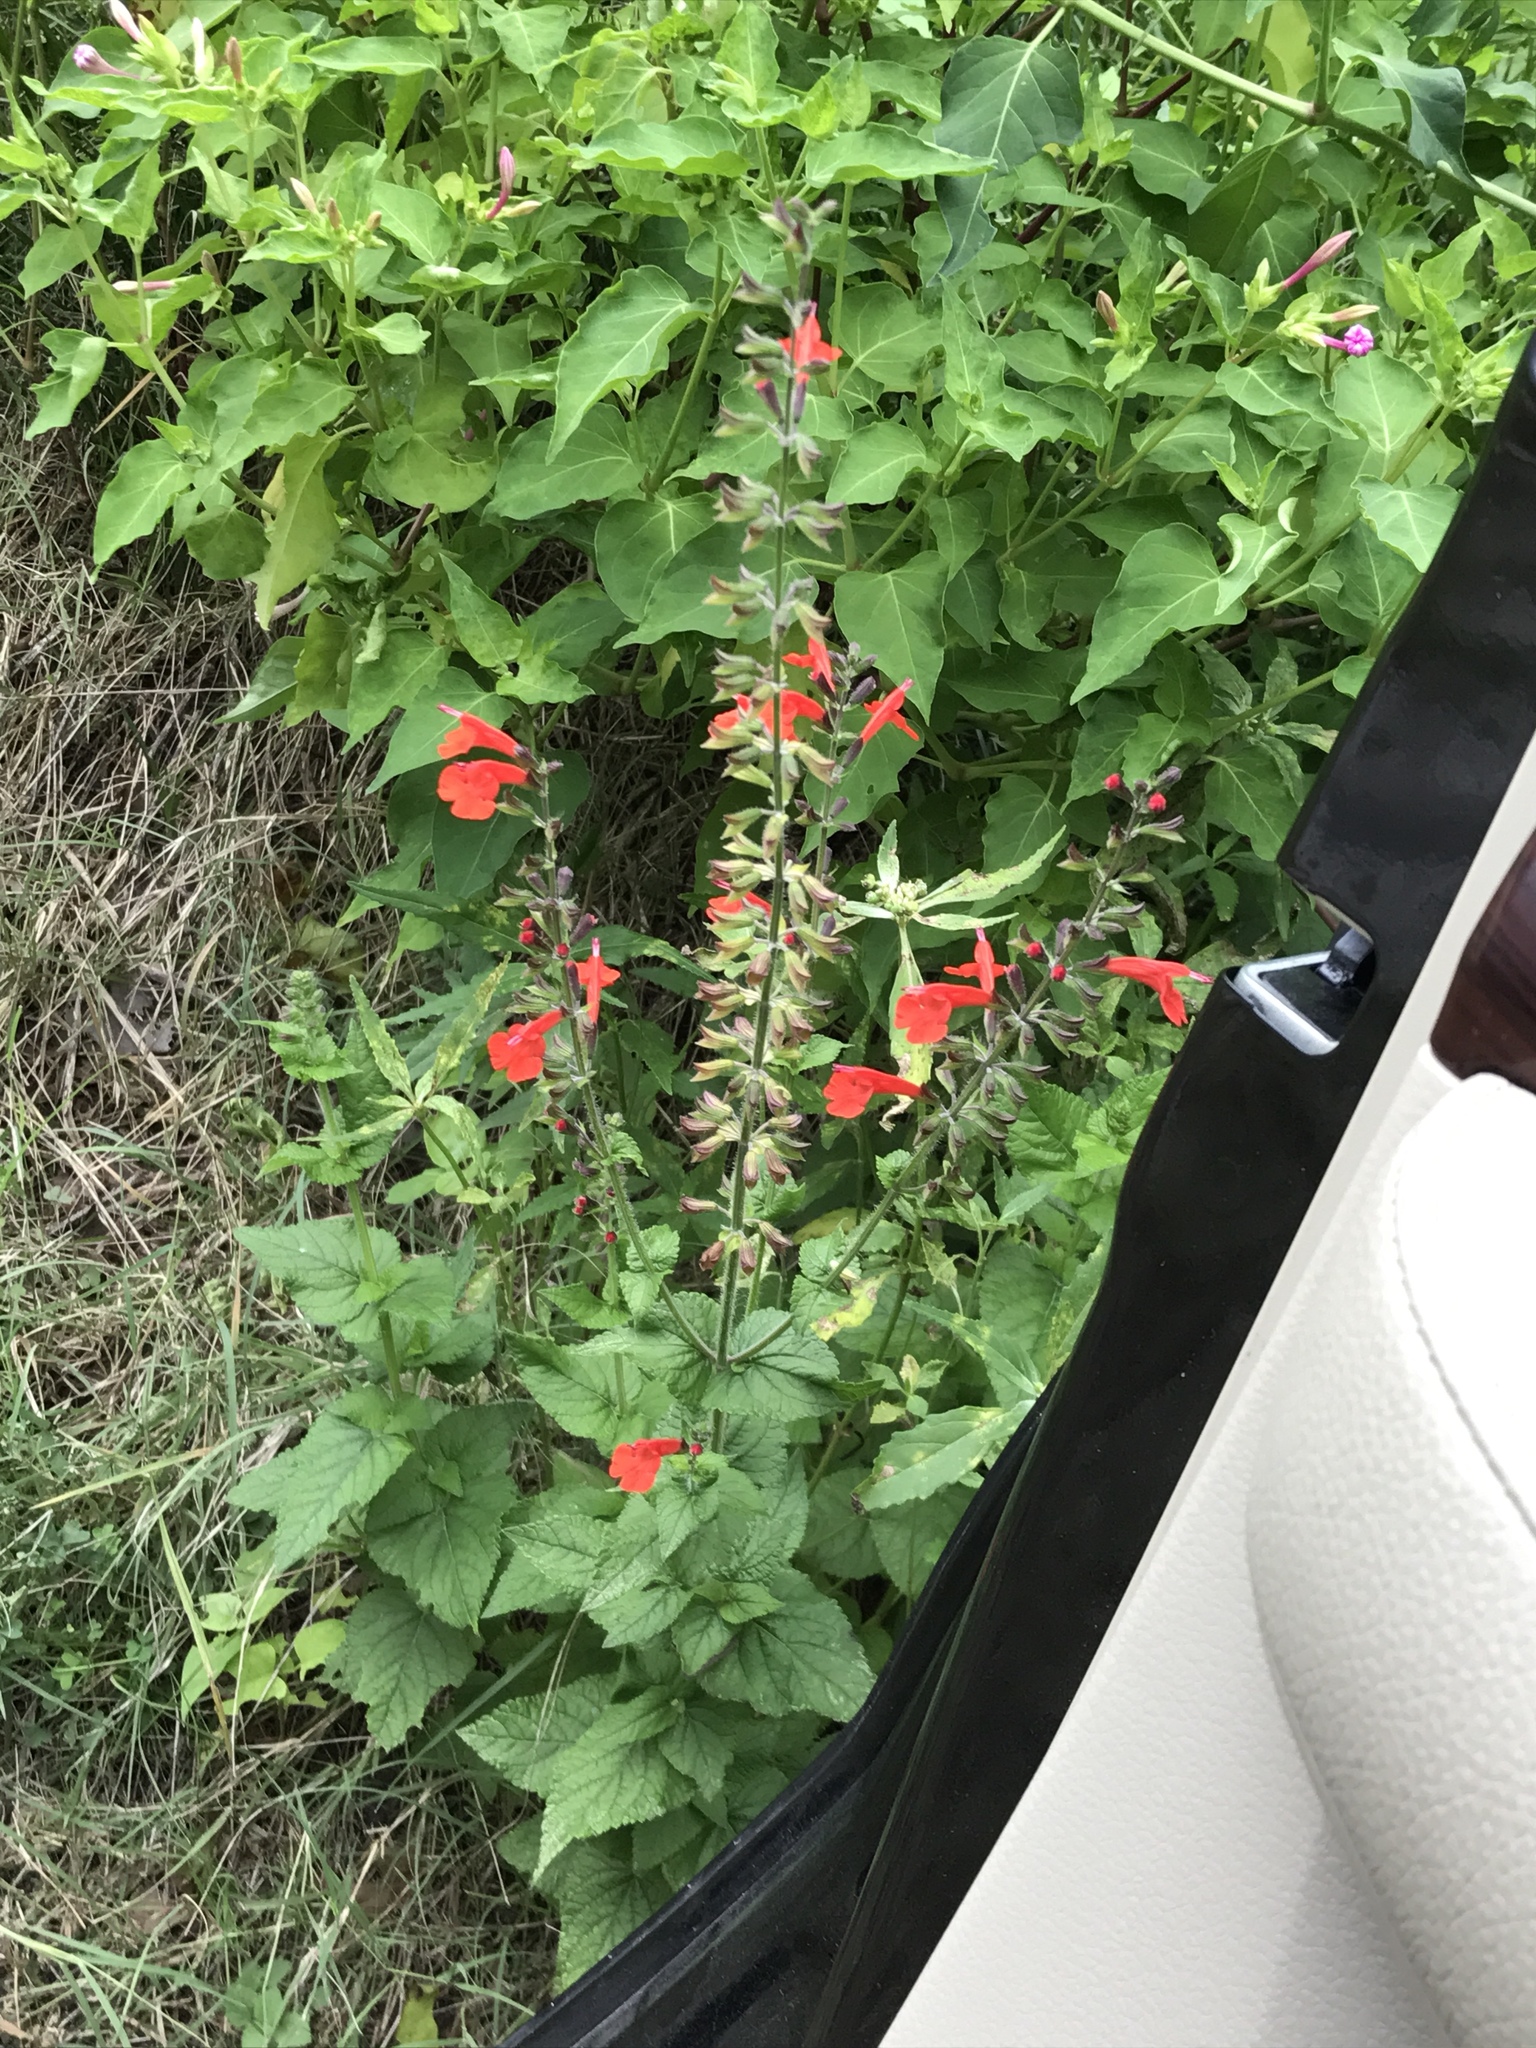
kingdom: Plantae
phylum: Tracheophyta
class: Magnoliopsida
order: Lamiales
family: Lamiaceae
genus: Salvia
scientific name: Salvia coccinea
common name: Blood sage
